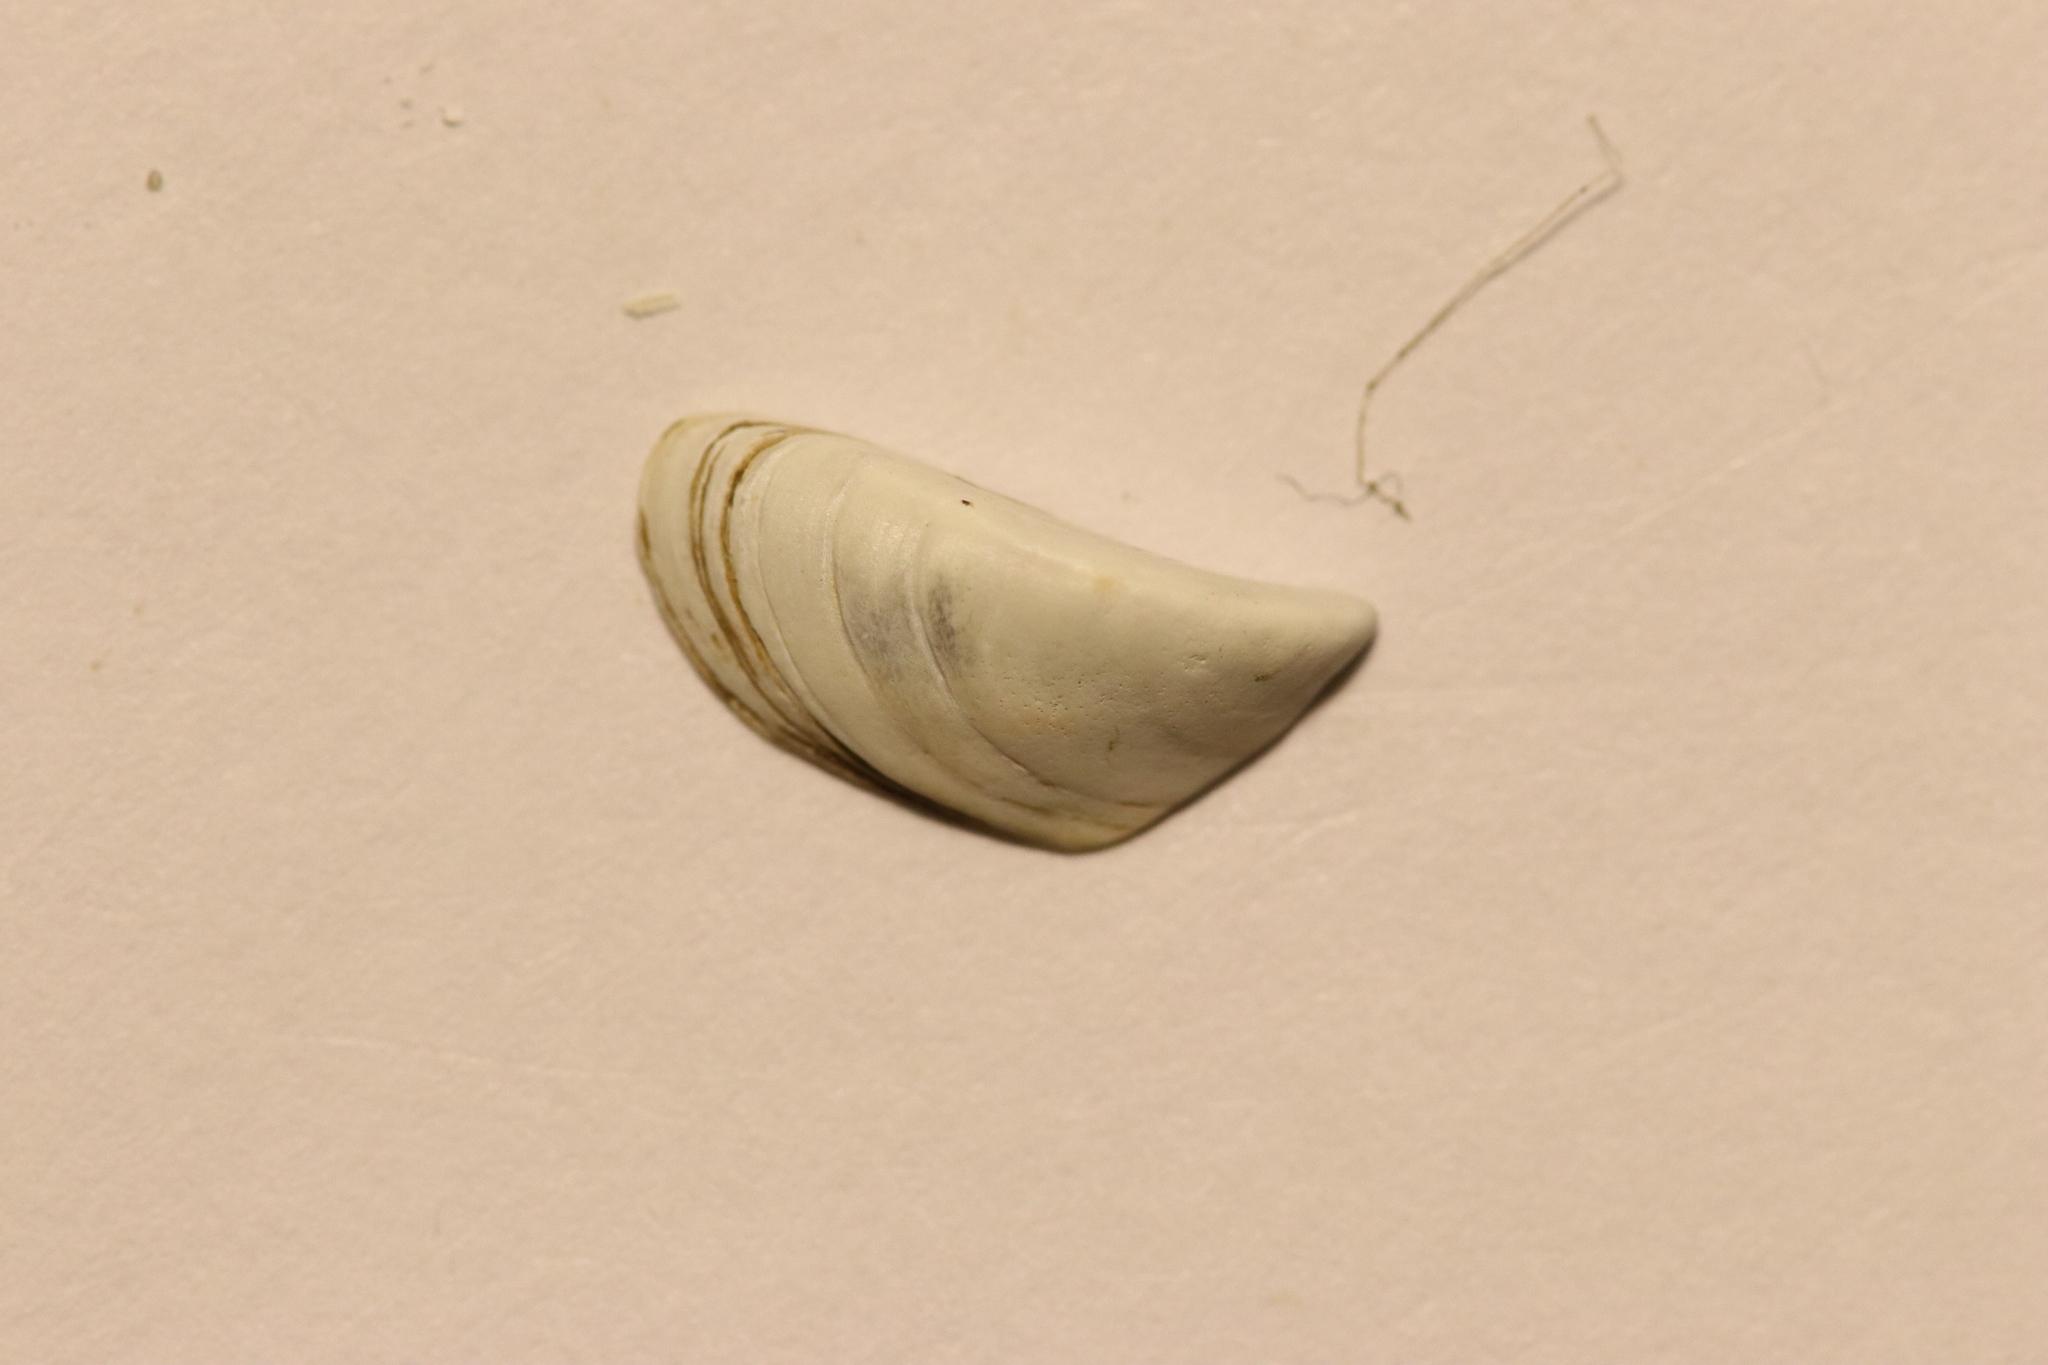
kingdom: Animalia
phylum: Mollusca
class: Bivalvia
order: Myida
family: Dreissenidae
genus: Dreissena
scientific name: Dreissena polymorpha
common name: Zebra mussel
